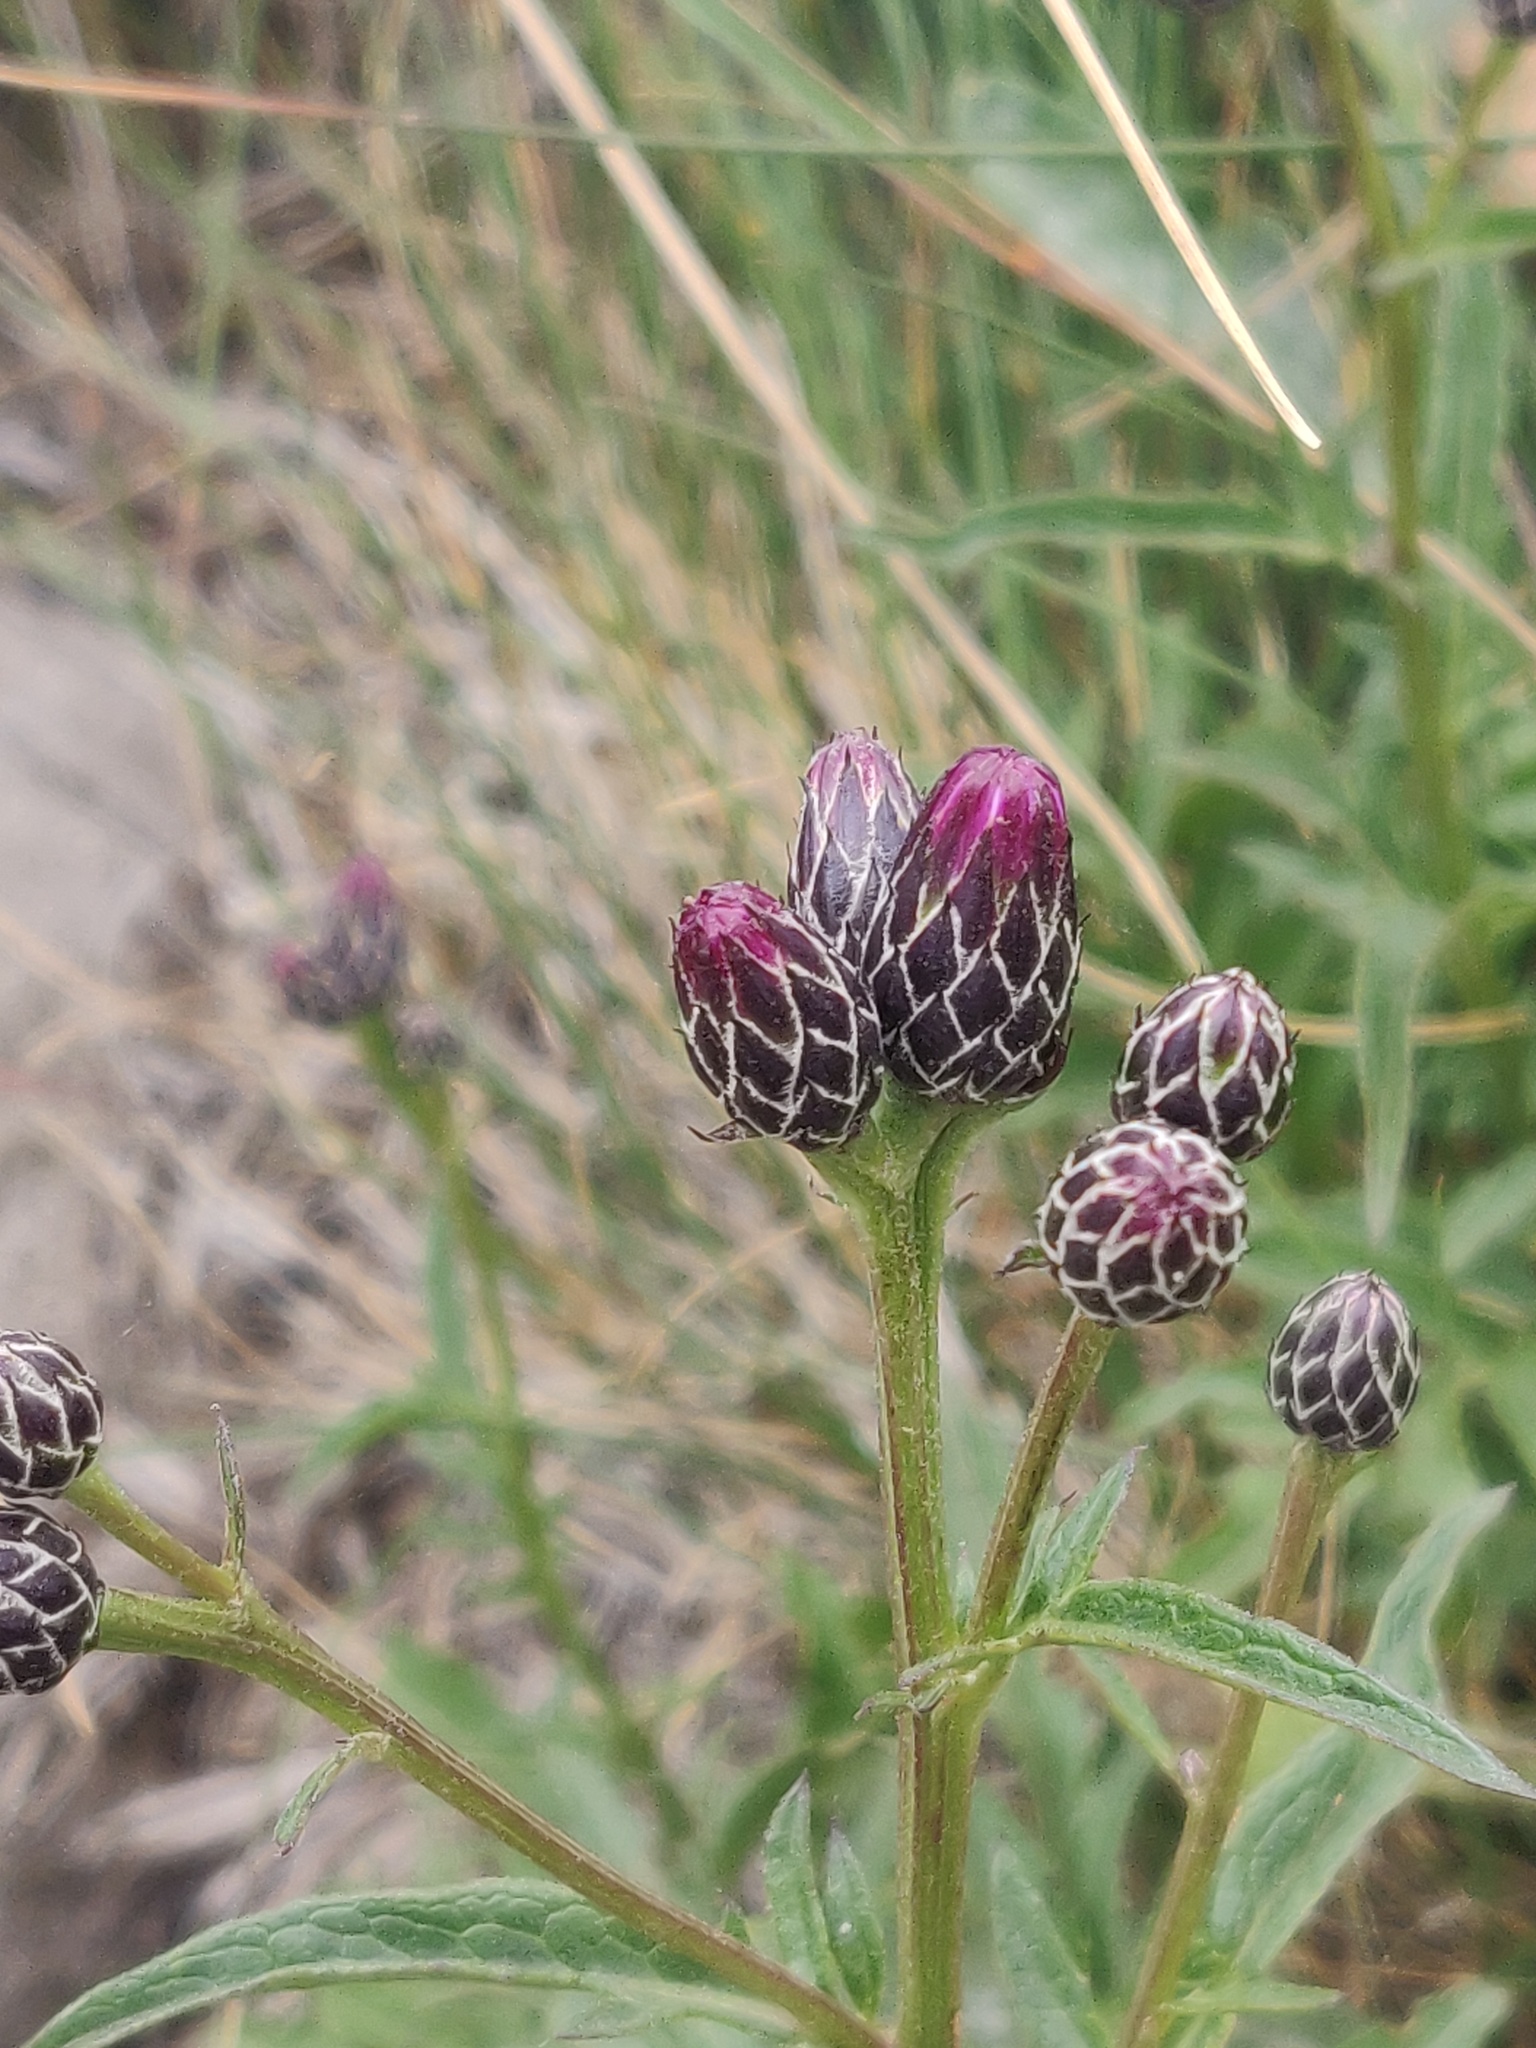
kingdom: Plantae
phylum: Tracheophyta
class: Magnoliopsida
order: Asterales
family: Asteraceae
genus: Serratula
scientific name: Serratula tinctoria
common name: Saw-wort
